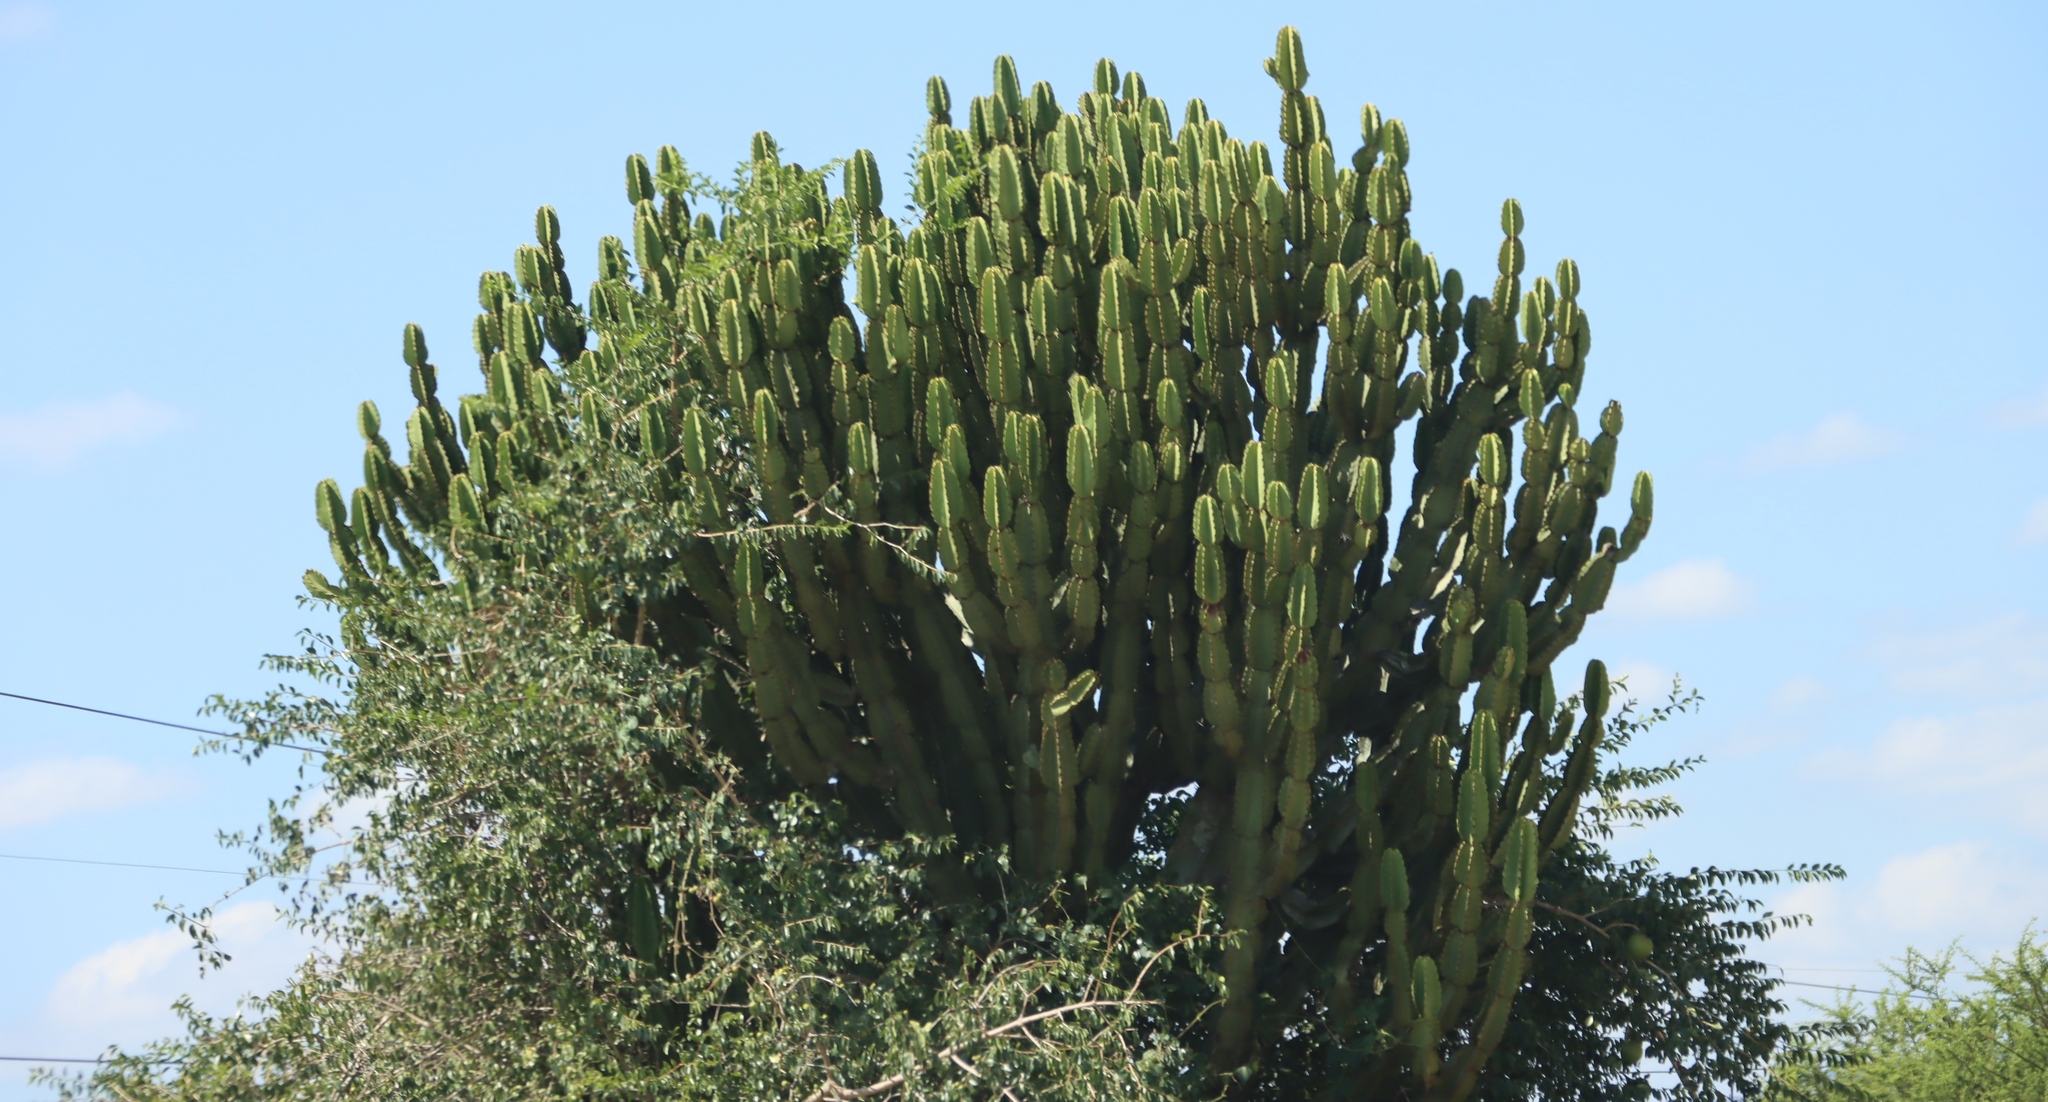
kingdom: Plantae
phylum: Tracheophyta
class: Magnoliopsida
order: Malpighiales
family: Euphorbiaceae
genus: Euphorbia
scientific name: Euphorbia ingens
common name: Cactus spurge
